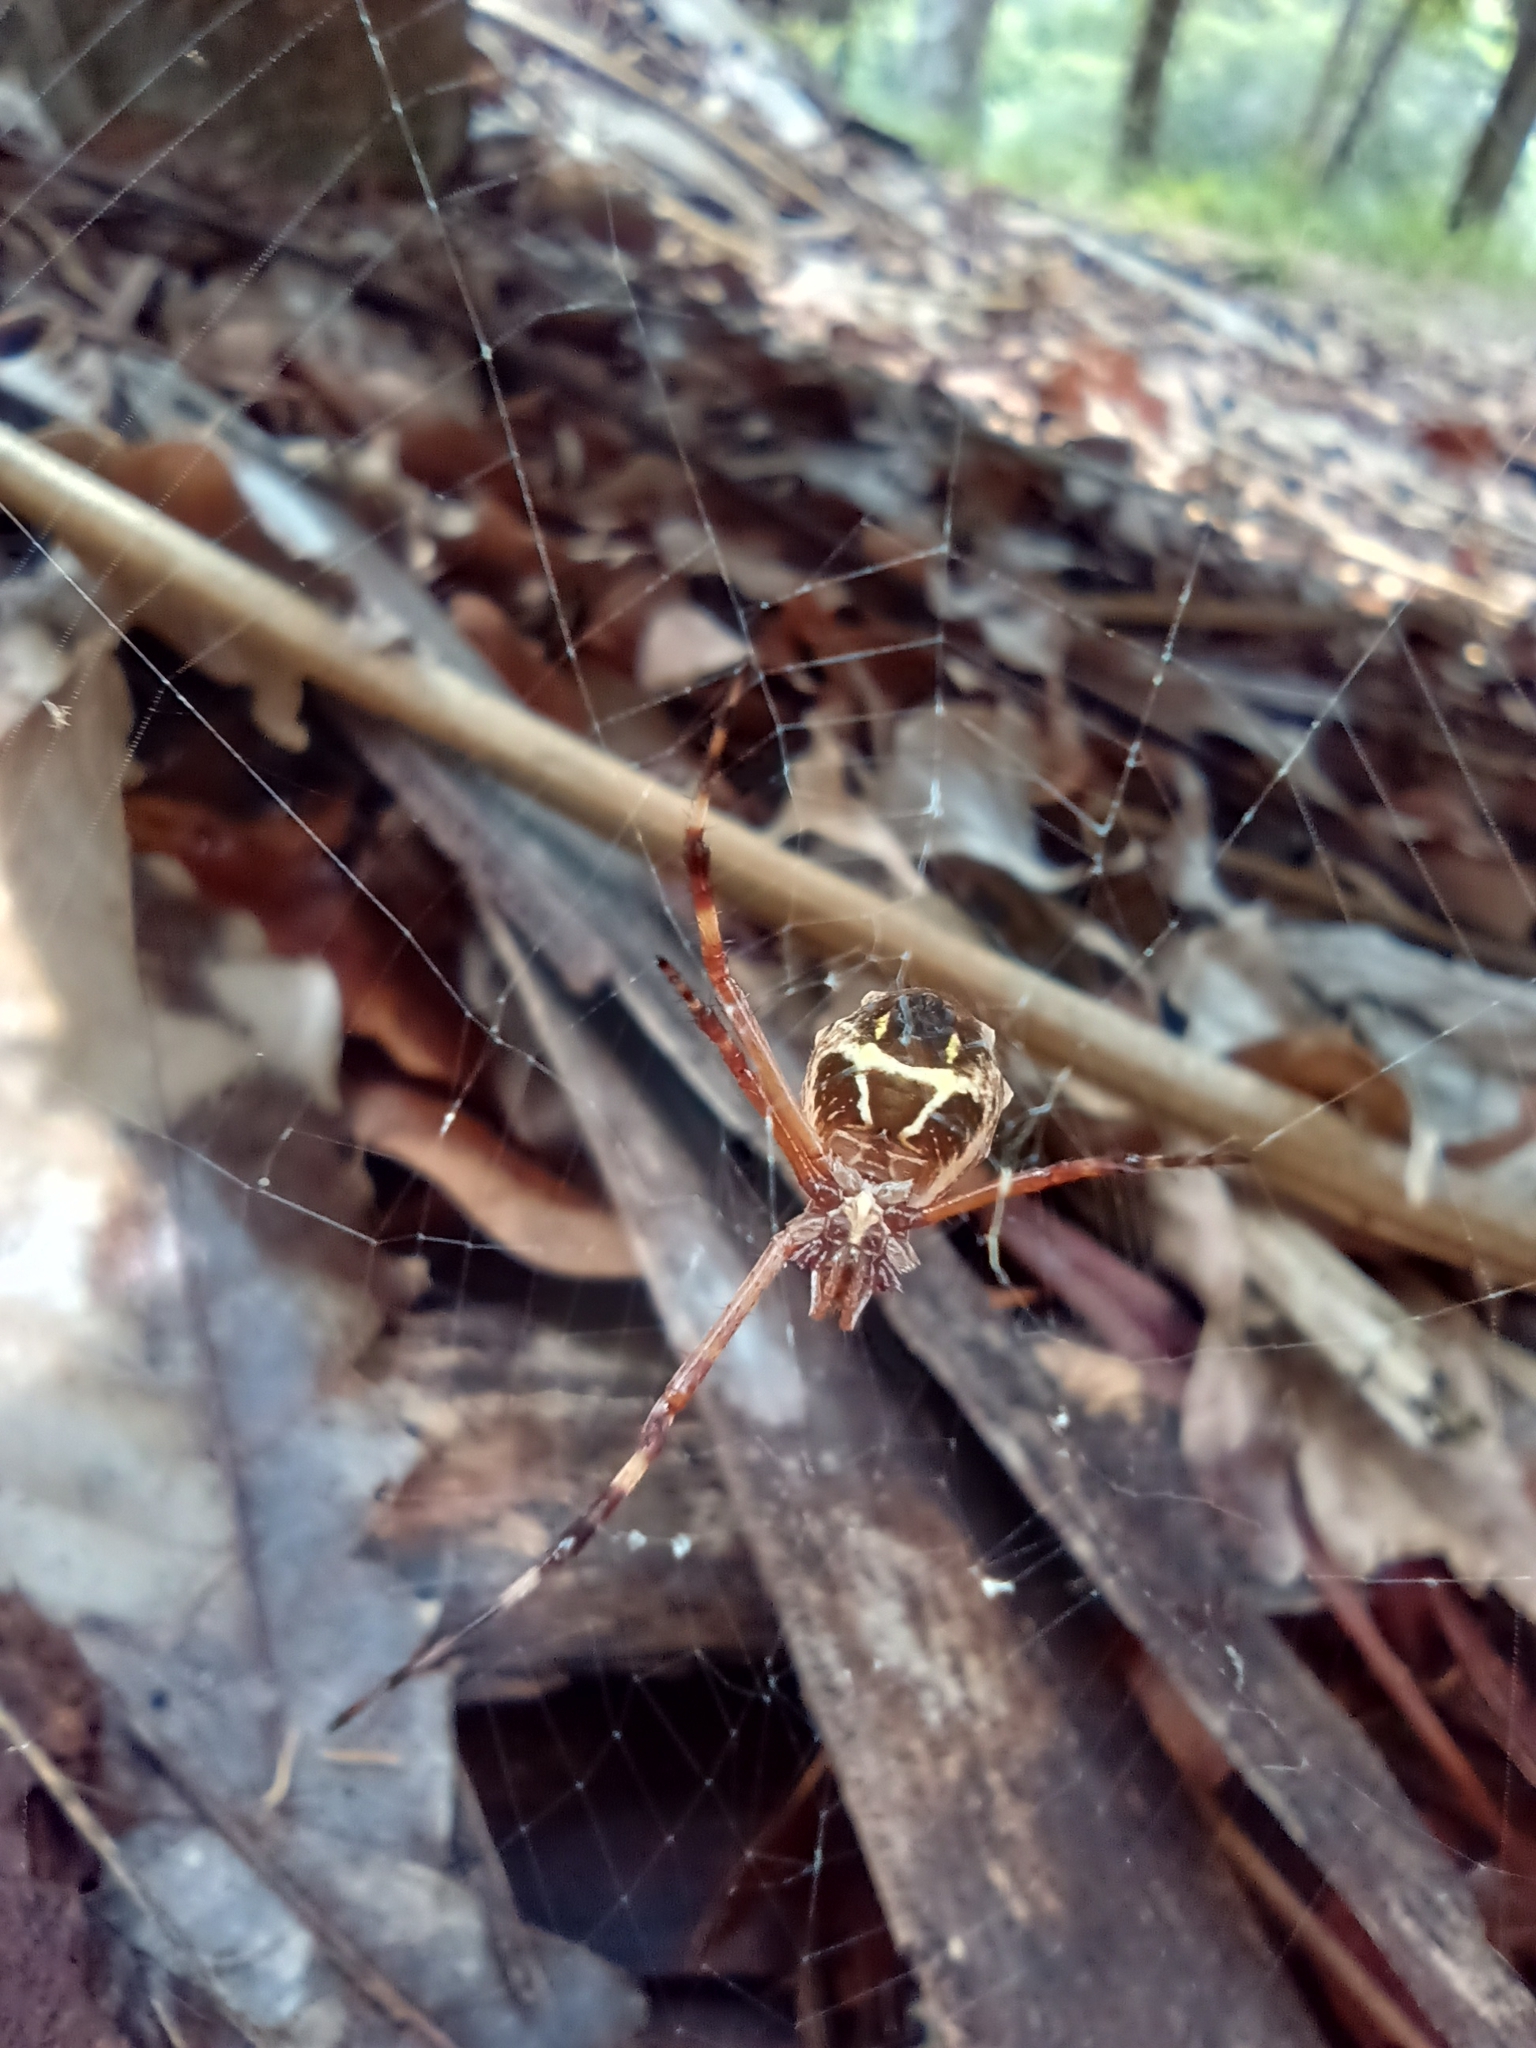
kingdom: Animalia
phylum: Arthropoda
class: Arachnida
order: Araneae
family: Araneidae
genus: Argiope
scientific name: Argiope argentata
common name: Orb weavers
